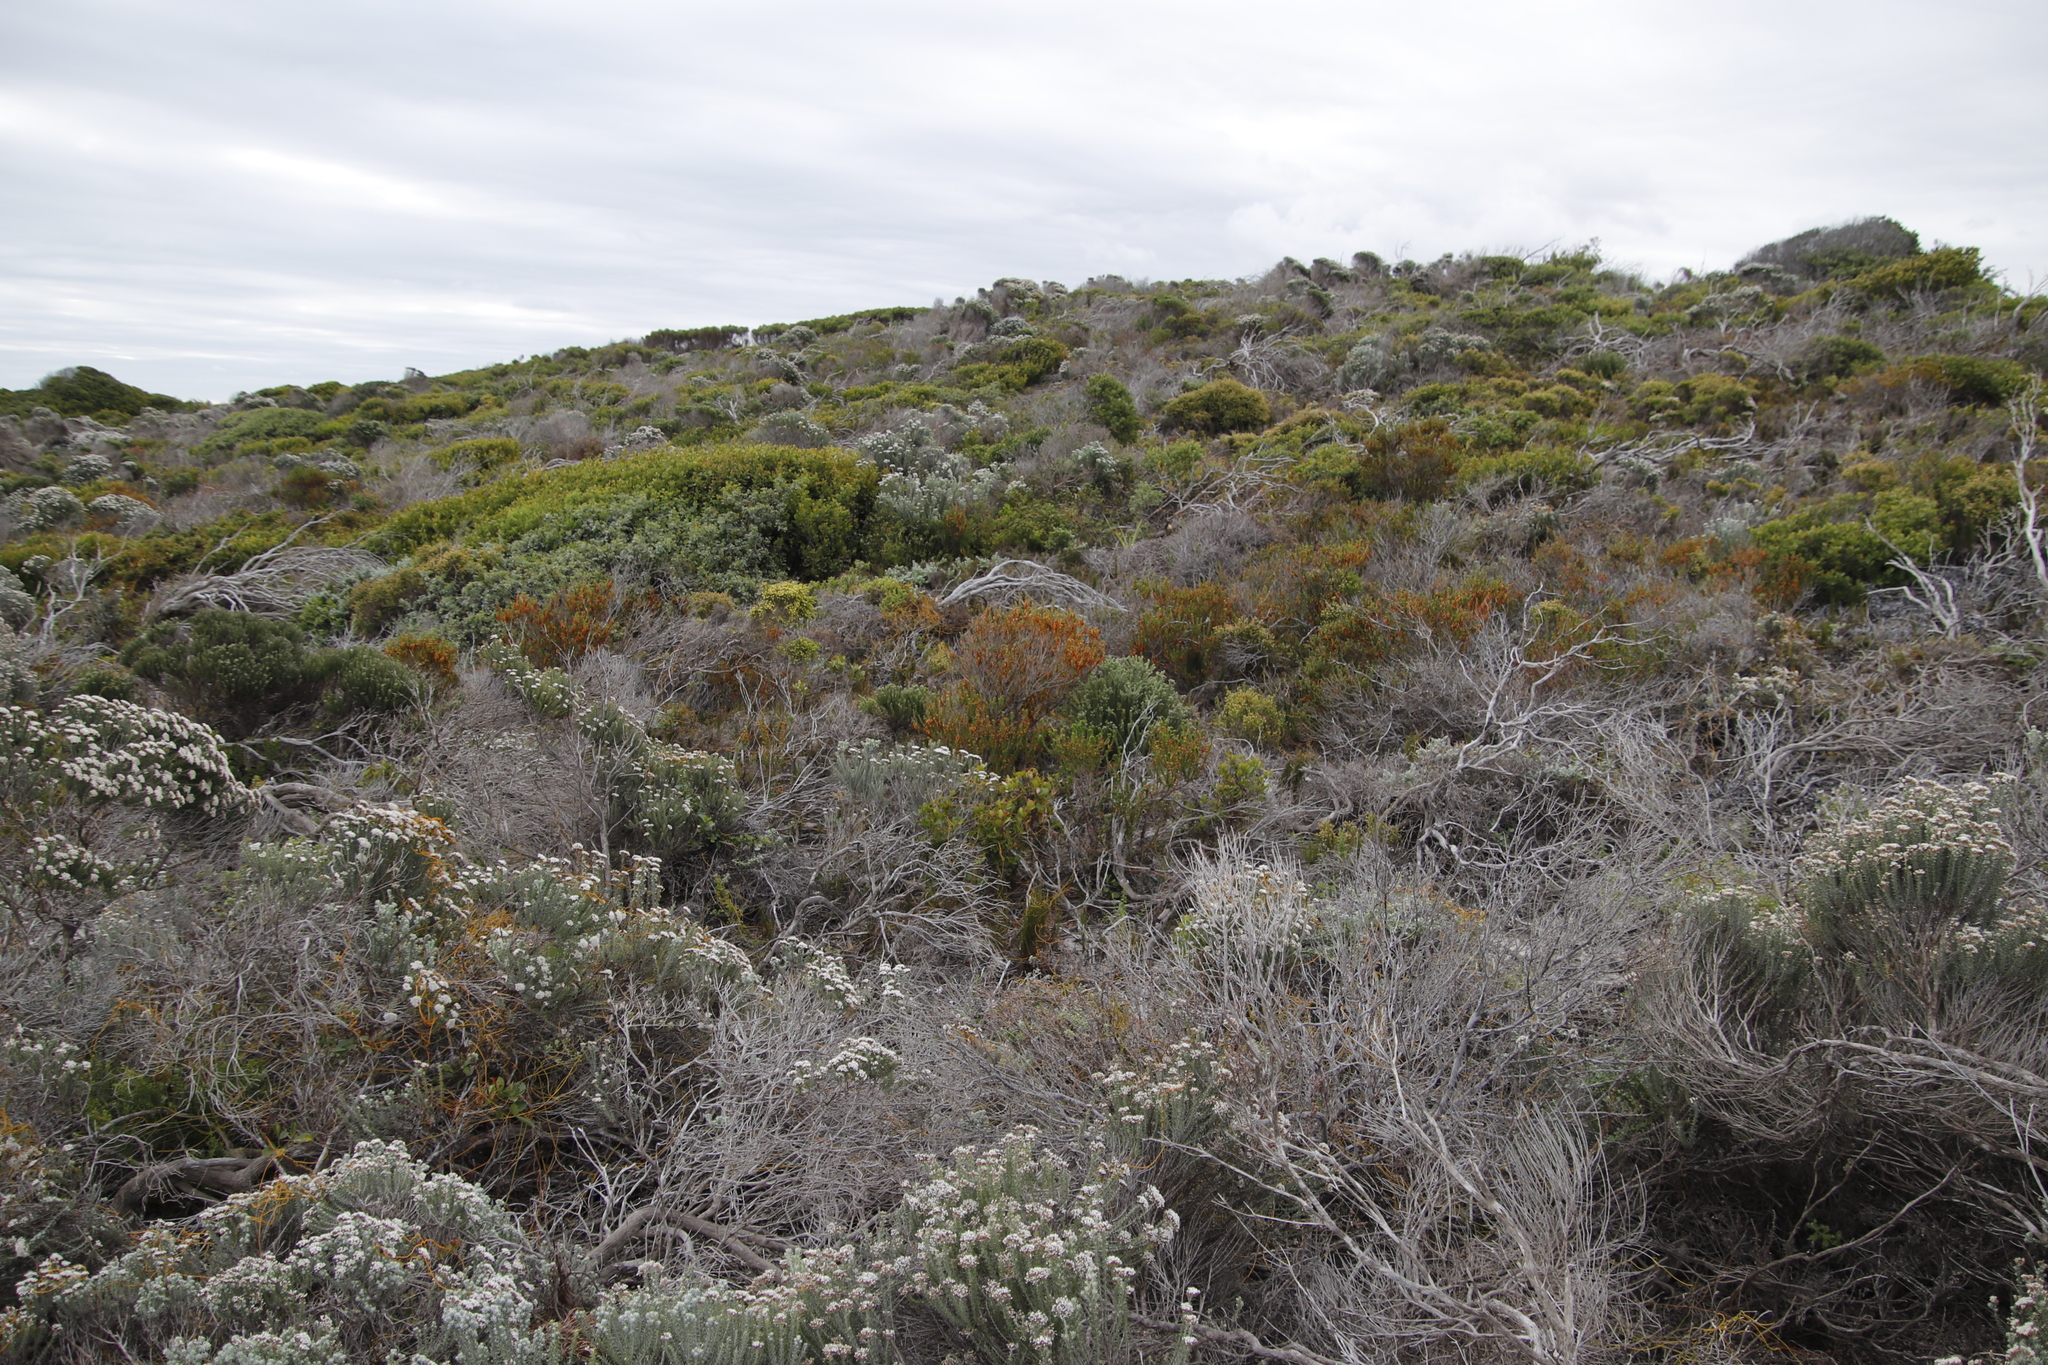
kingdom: Plantae
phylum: Tracheophyta
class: Magnoliopsida
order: Ericales
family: Ericaceae
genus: Erica
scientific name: Erica coccinea
